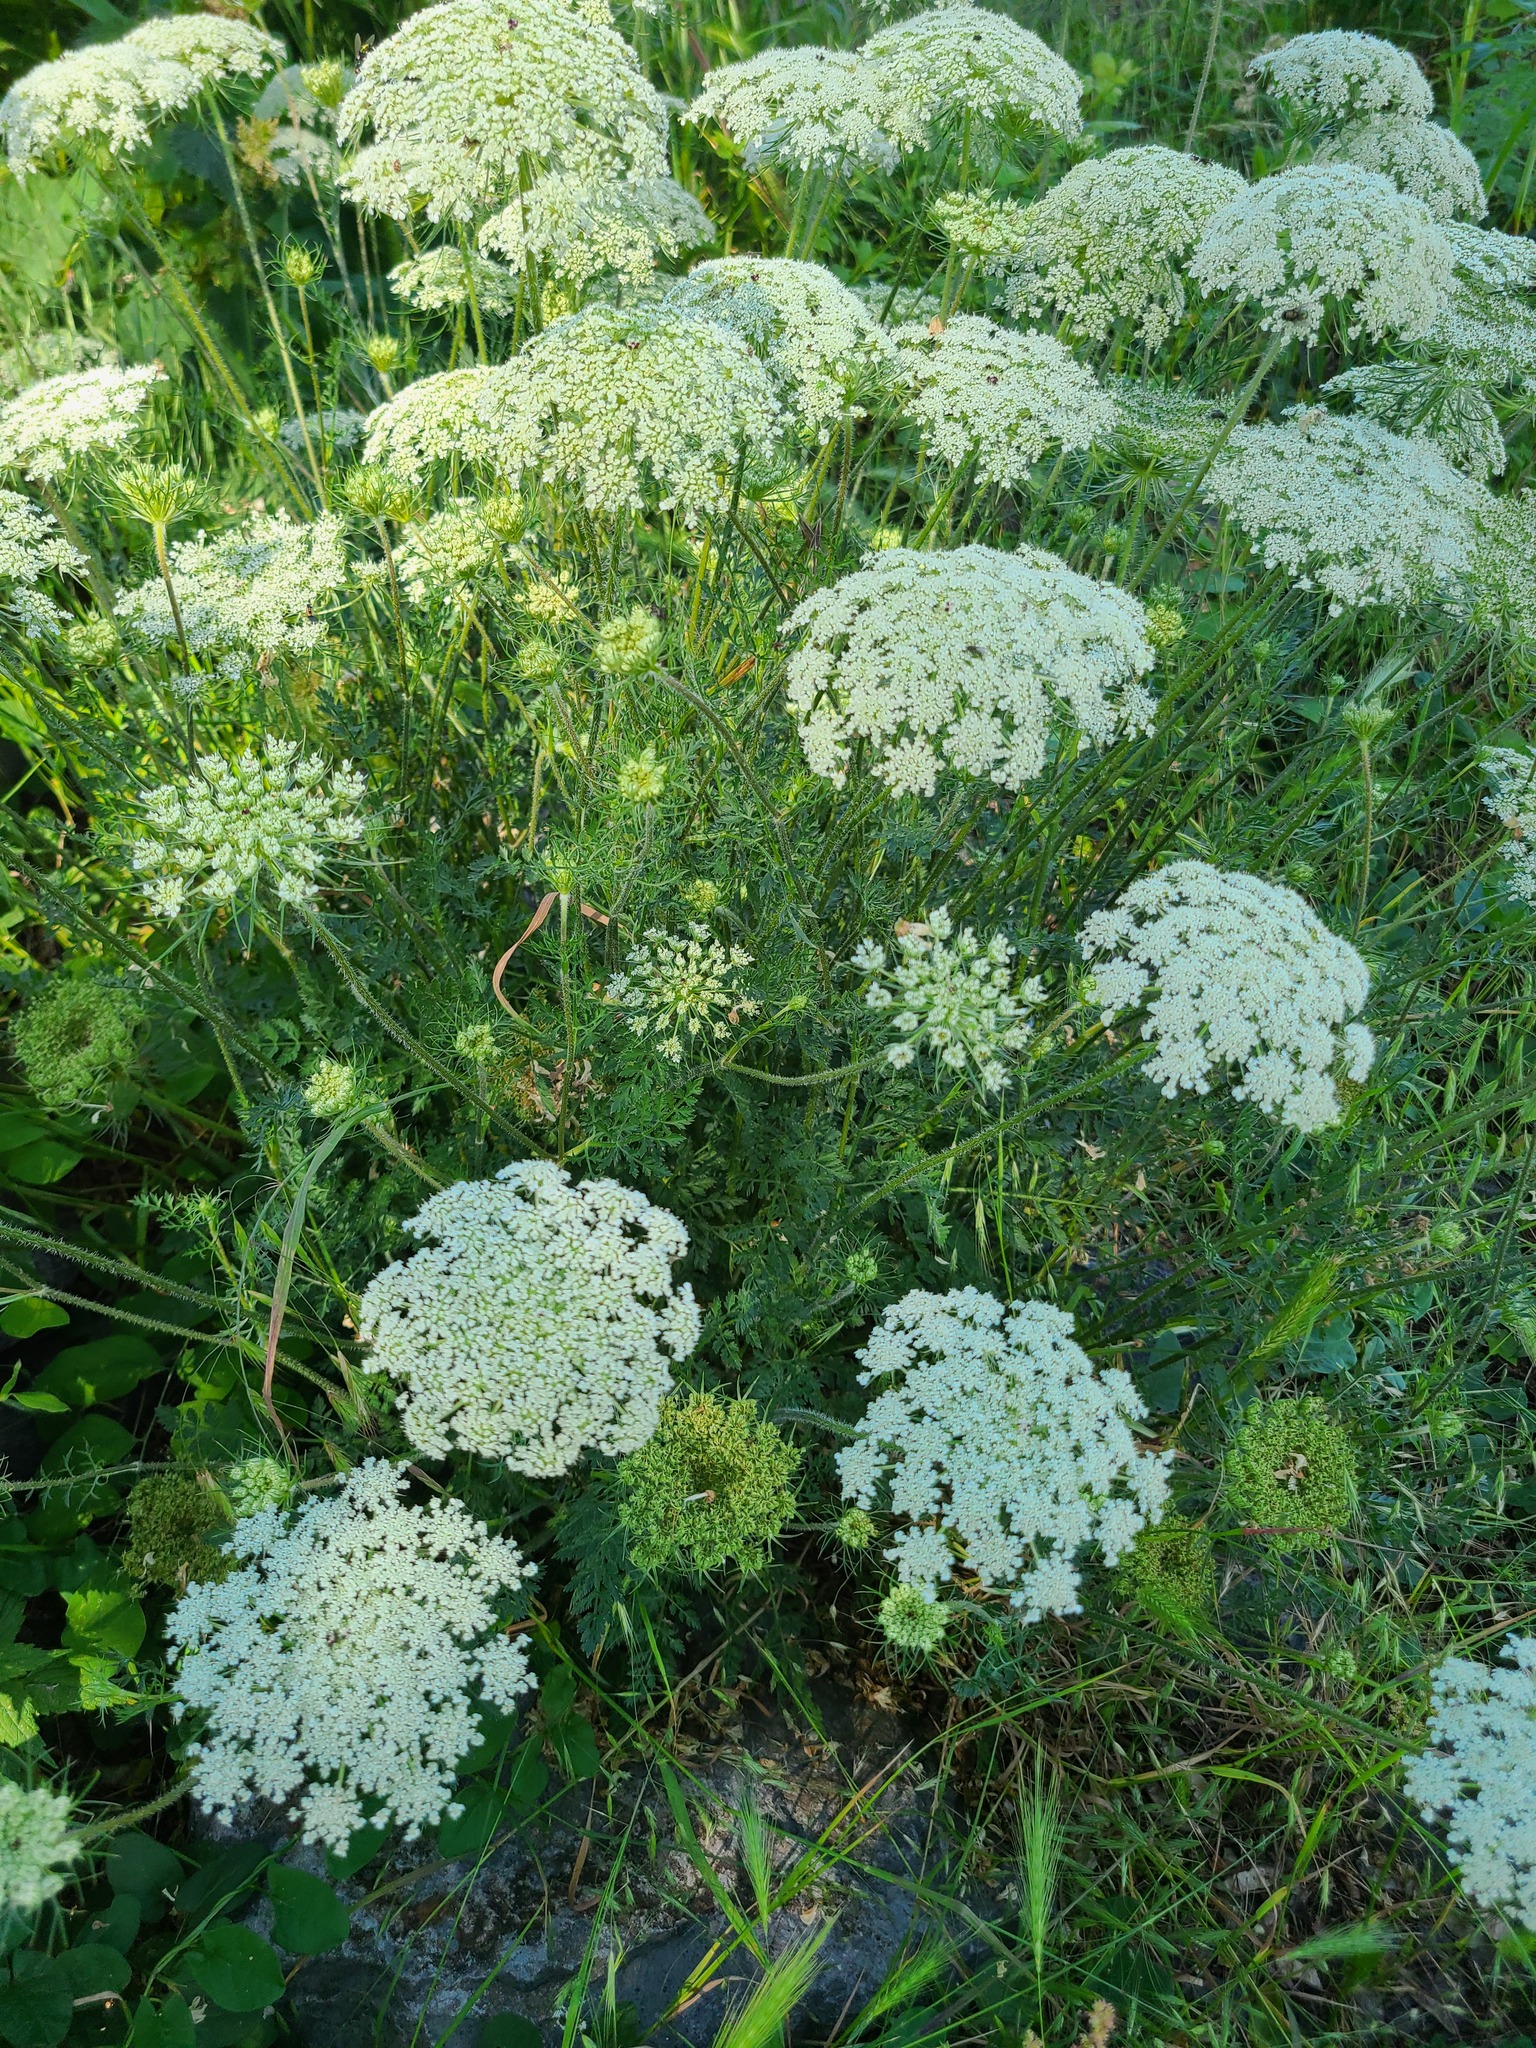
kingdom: Plantae
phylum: Tracheophyta
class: Magnoliopsida
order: Apiales
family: Apiaceae
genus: Daucus
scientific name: Daucus carota
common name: Wild carrot
